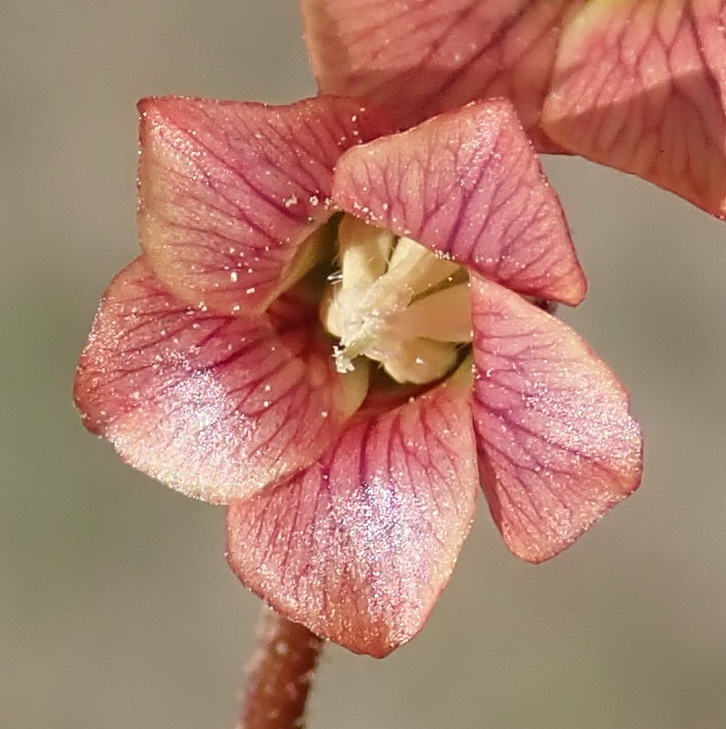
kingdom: Plantae
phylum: Tracheophyta
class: Magnoliopsida
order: Malvales
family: Malvaceae
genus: Hermannia
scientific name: Hermannia depressa
